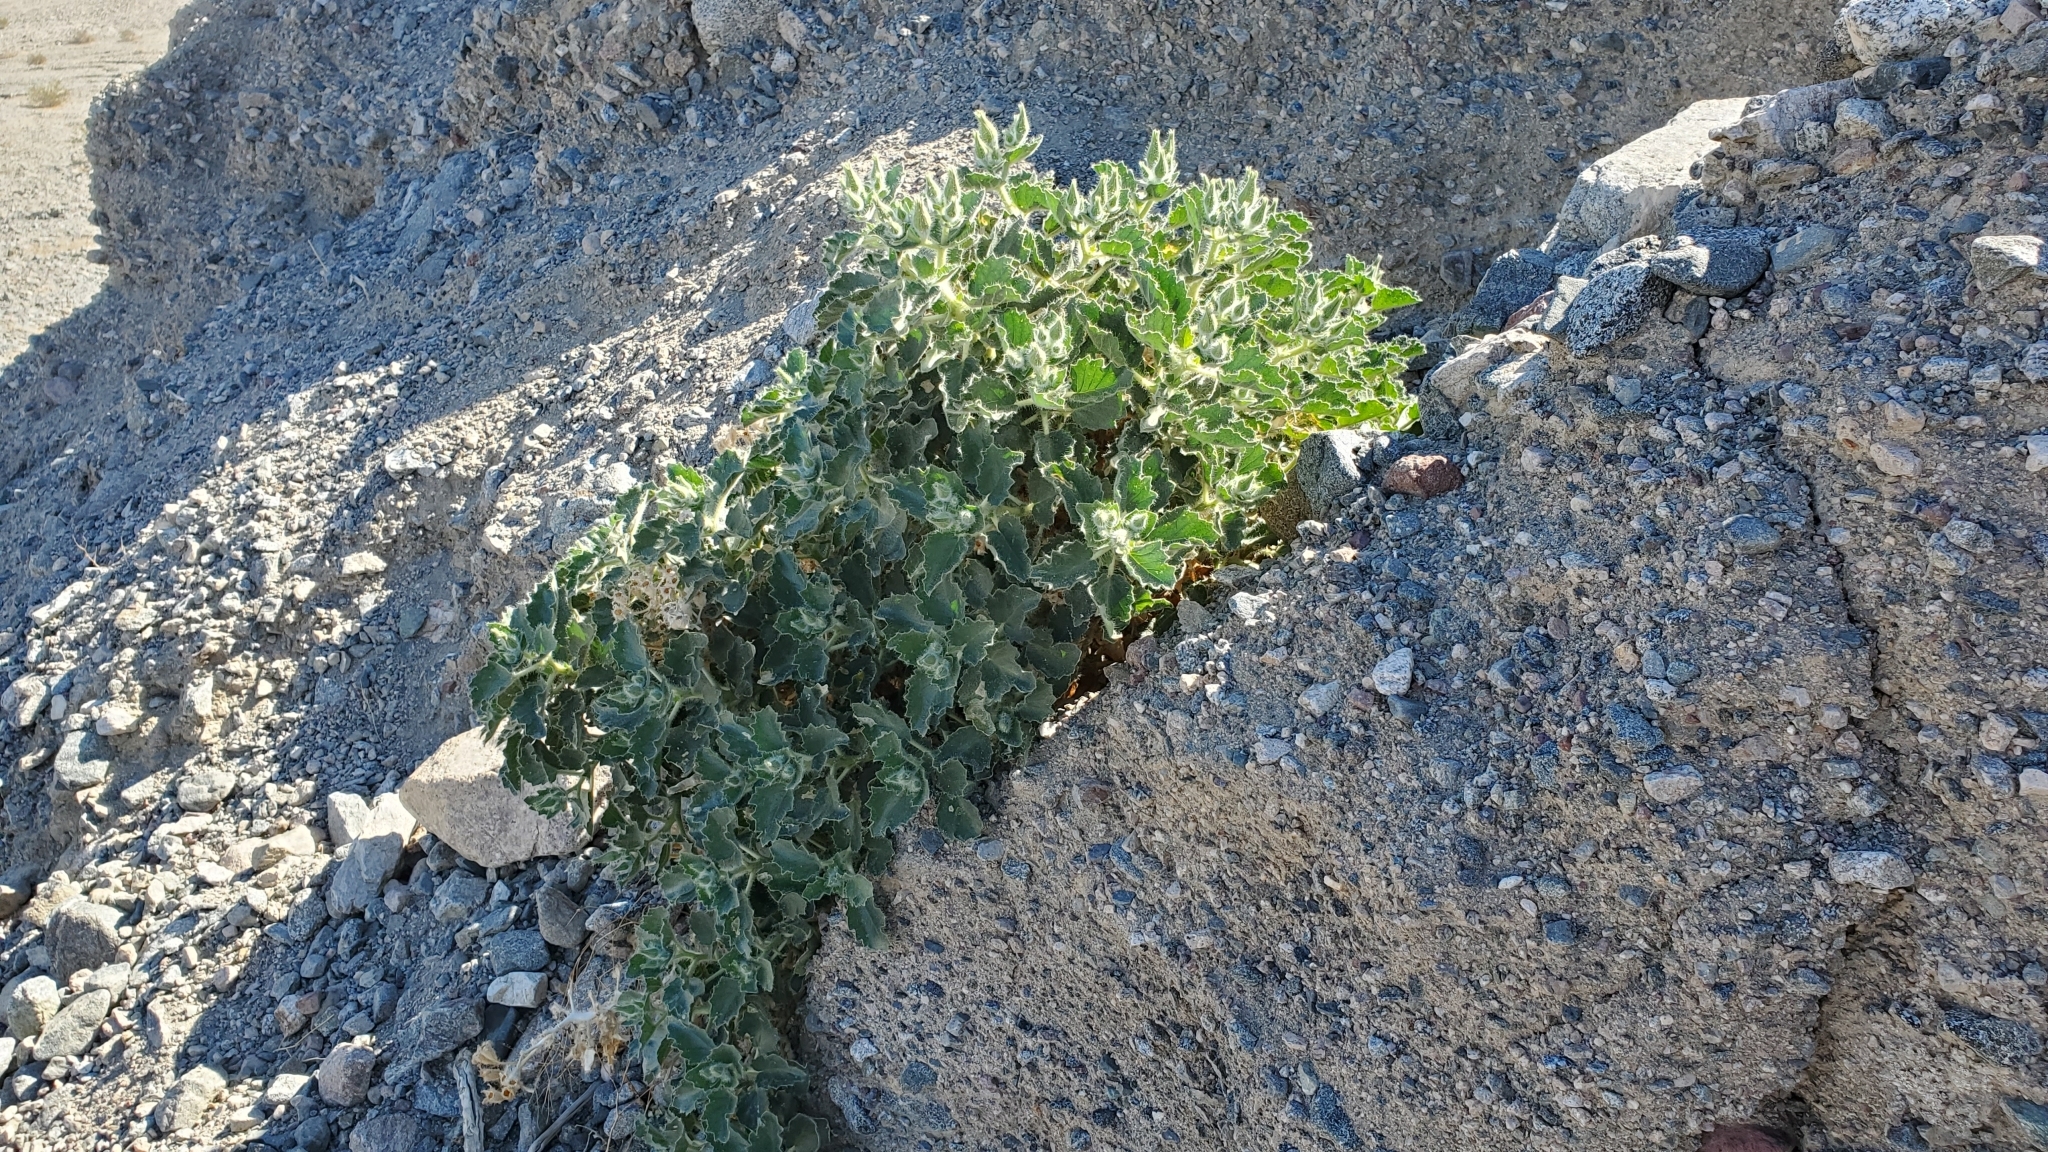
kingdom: Plantae
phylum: Tracheophyta
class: Magnoliopsida
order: Cornales
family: Loasaceae
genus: Eucnide
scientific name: Eucnide urens
